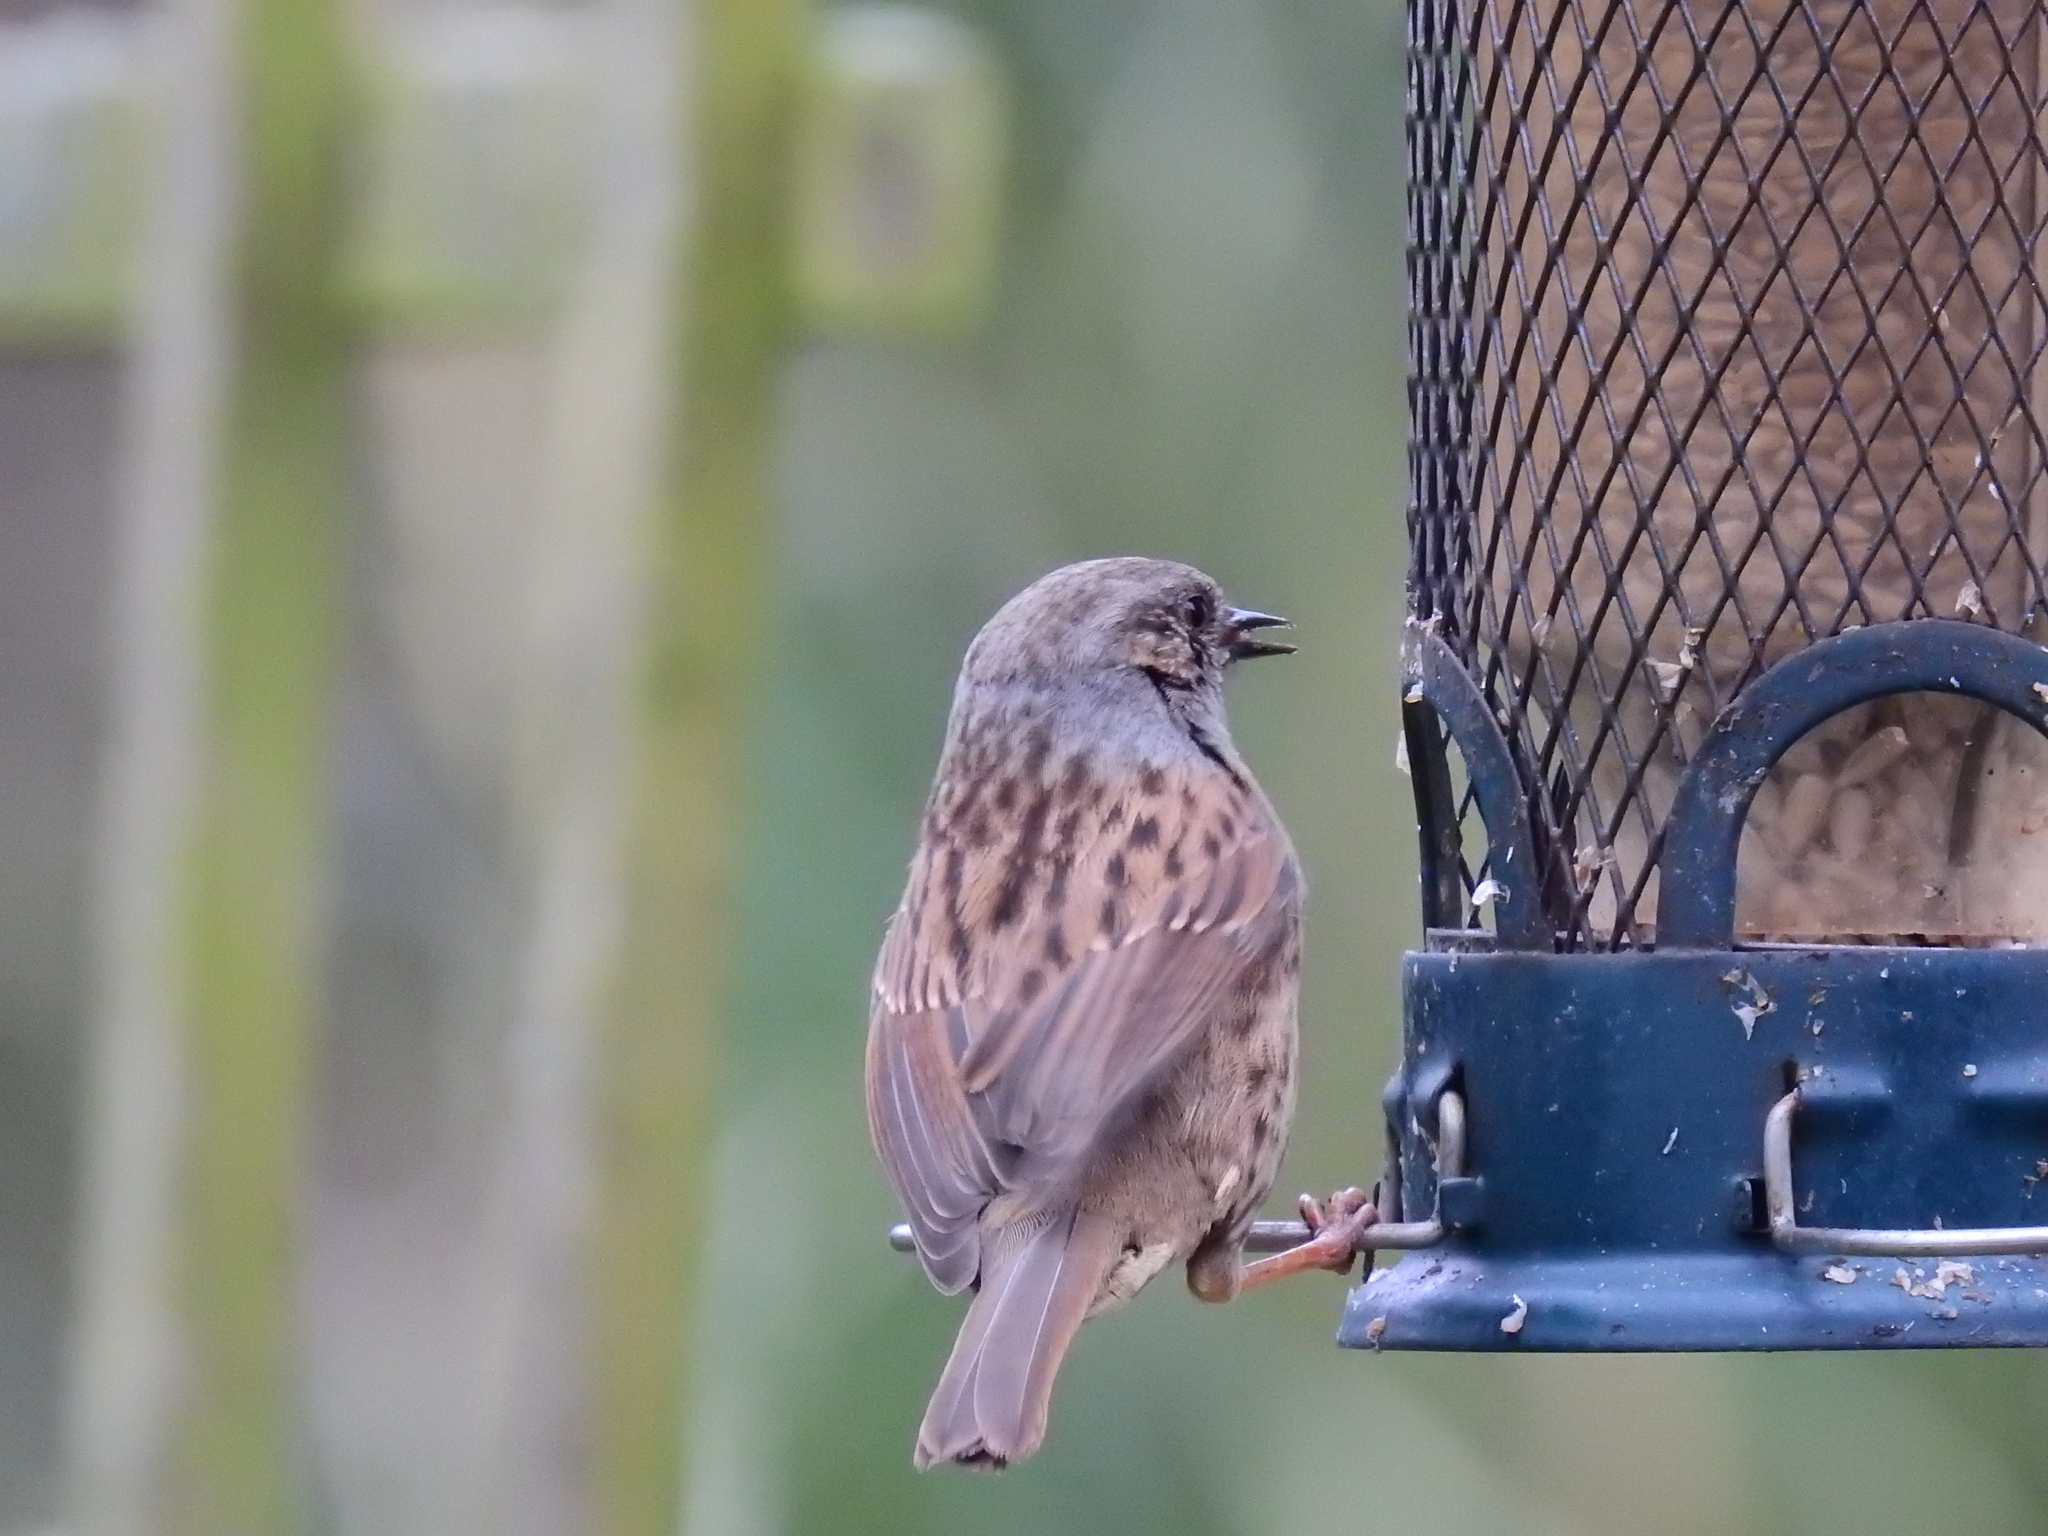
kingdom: Animalia
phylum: Chordata
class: Aves
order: Passeriformes
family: Prunellidae
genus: Prunella
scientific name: Prunella modularis
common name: Dunnock
